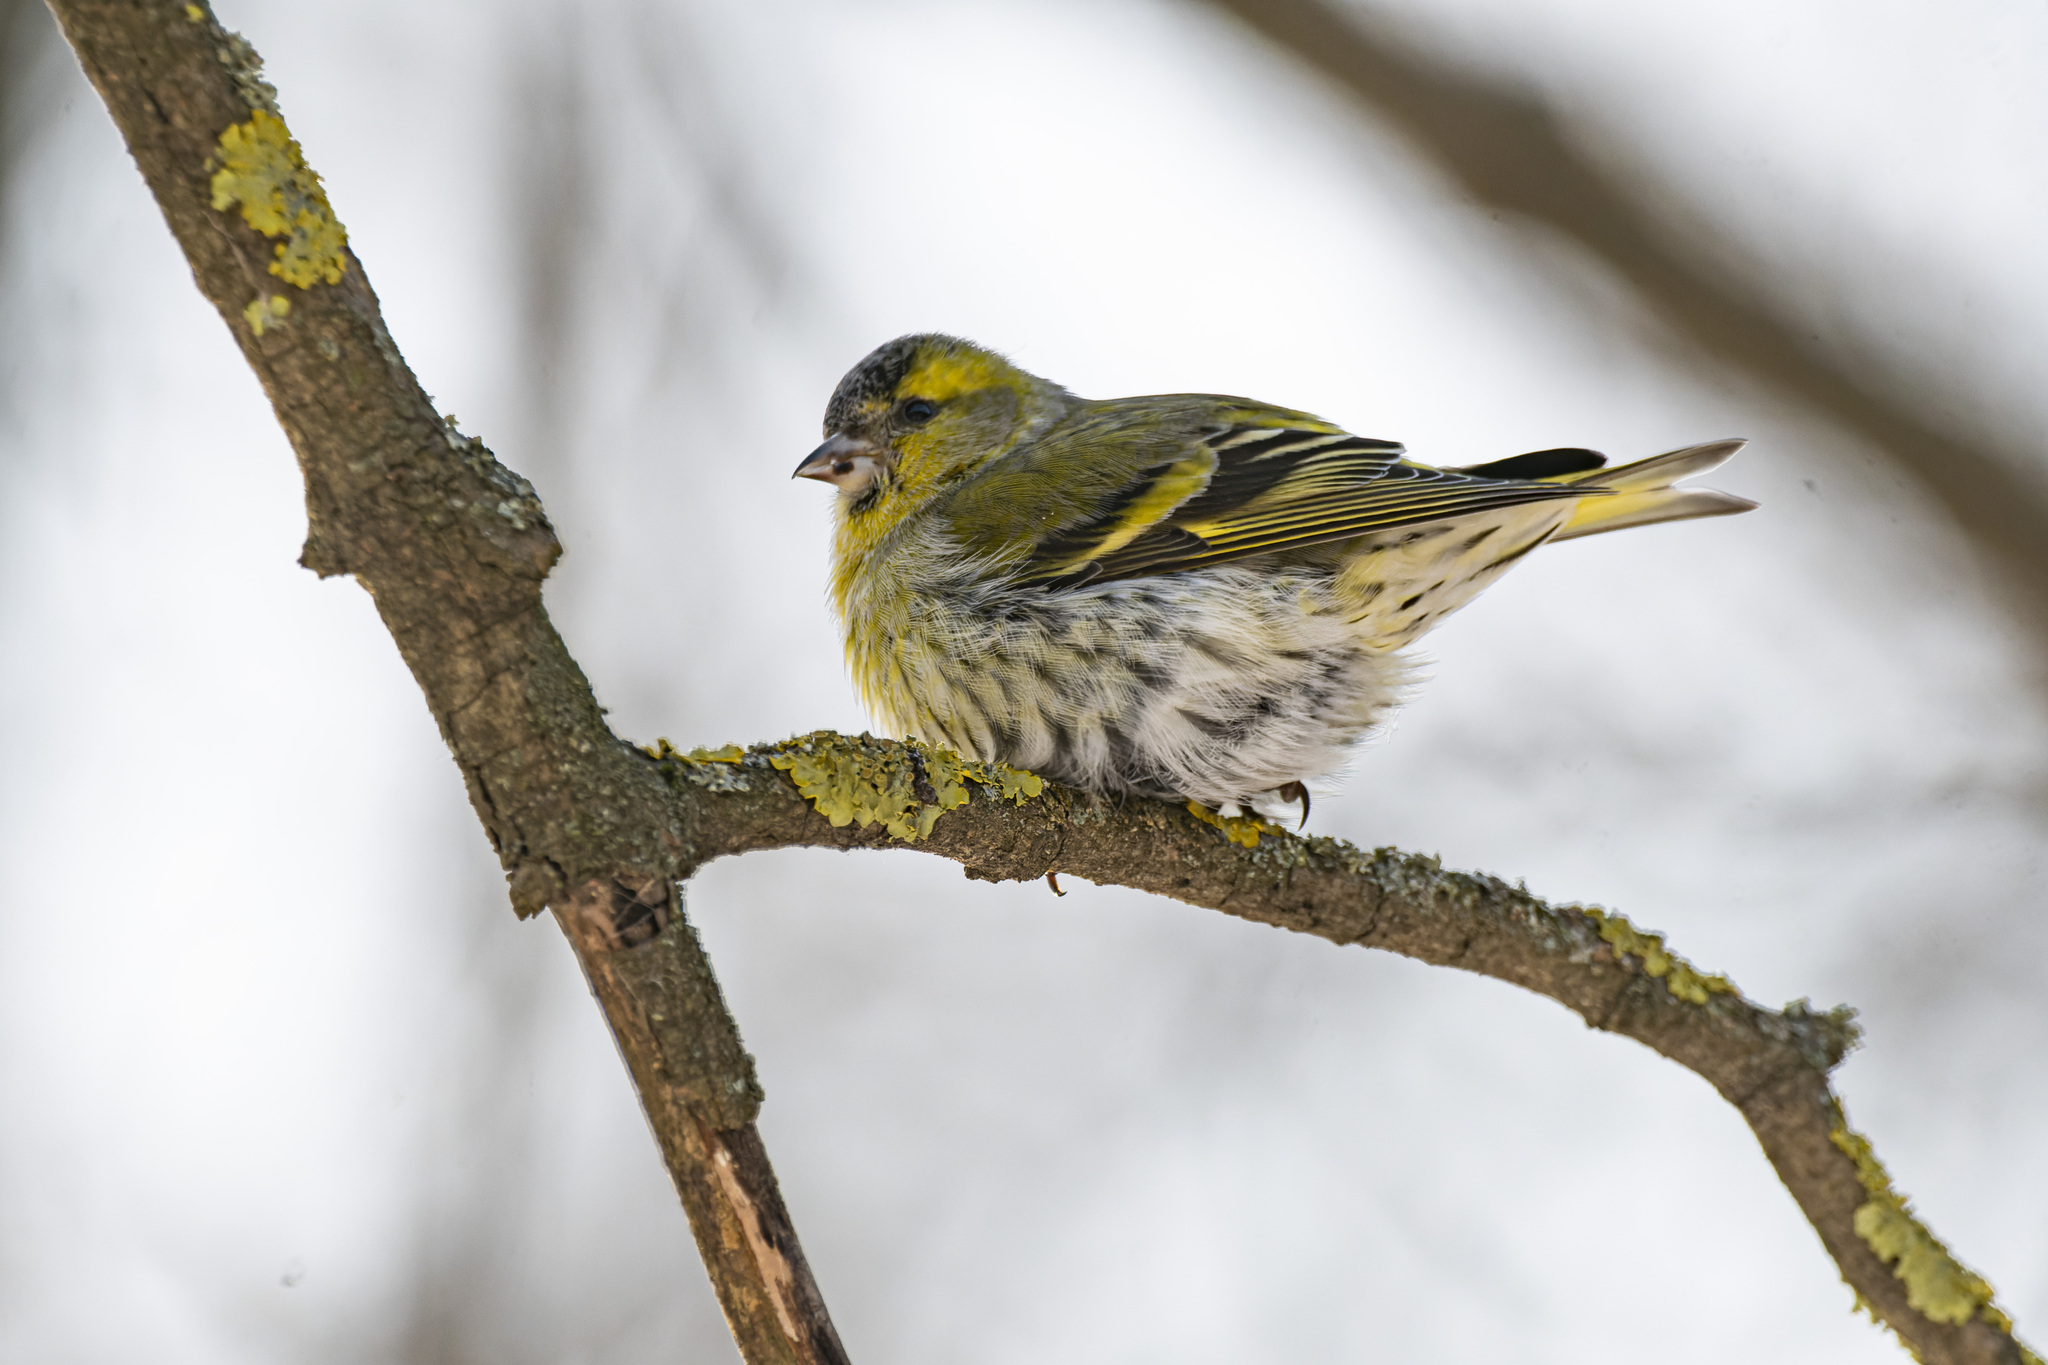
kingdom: Animalia
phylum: Chordata
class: Aves
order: Passeriformes
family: Fringillidae
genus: Spinus
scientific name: Spinus spinus
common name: Eurasian siskin
